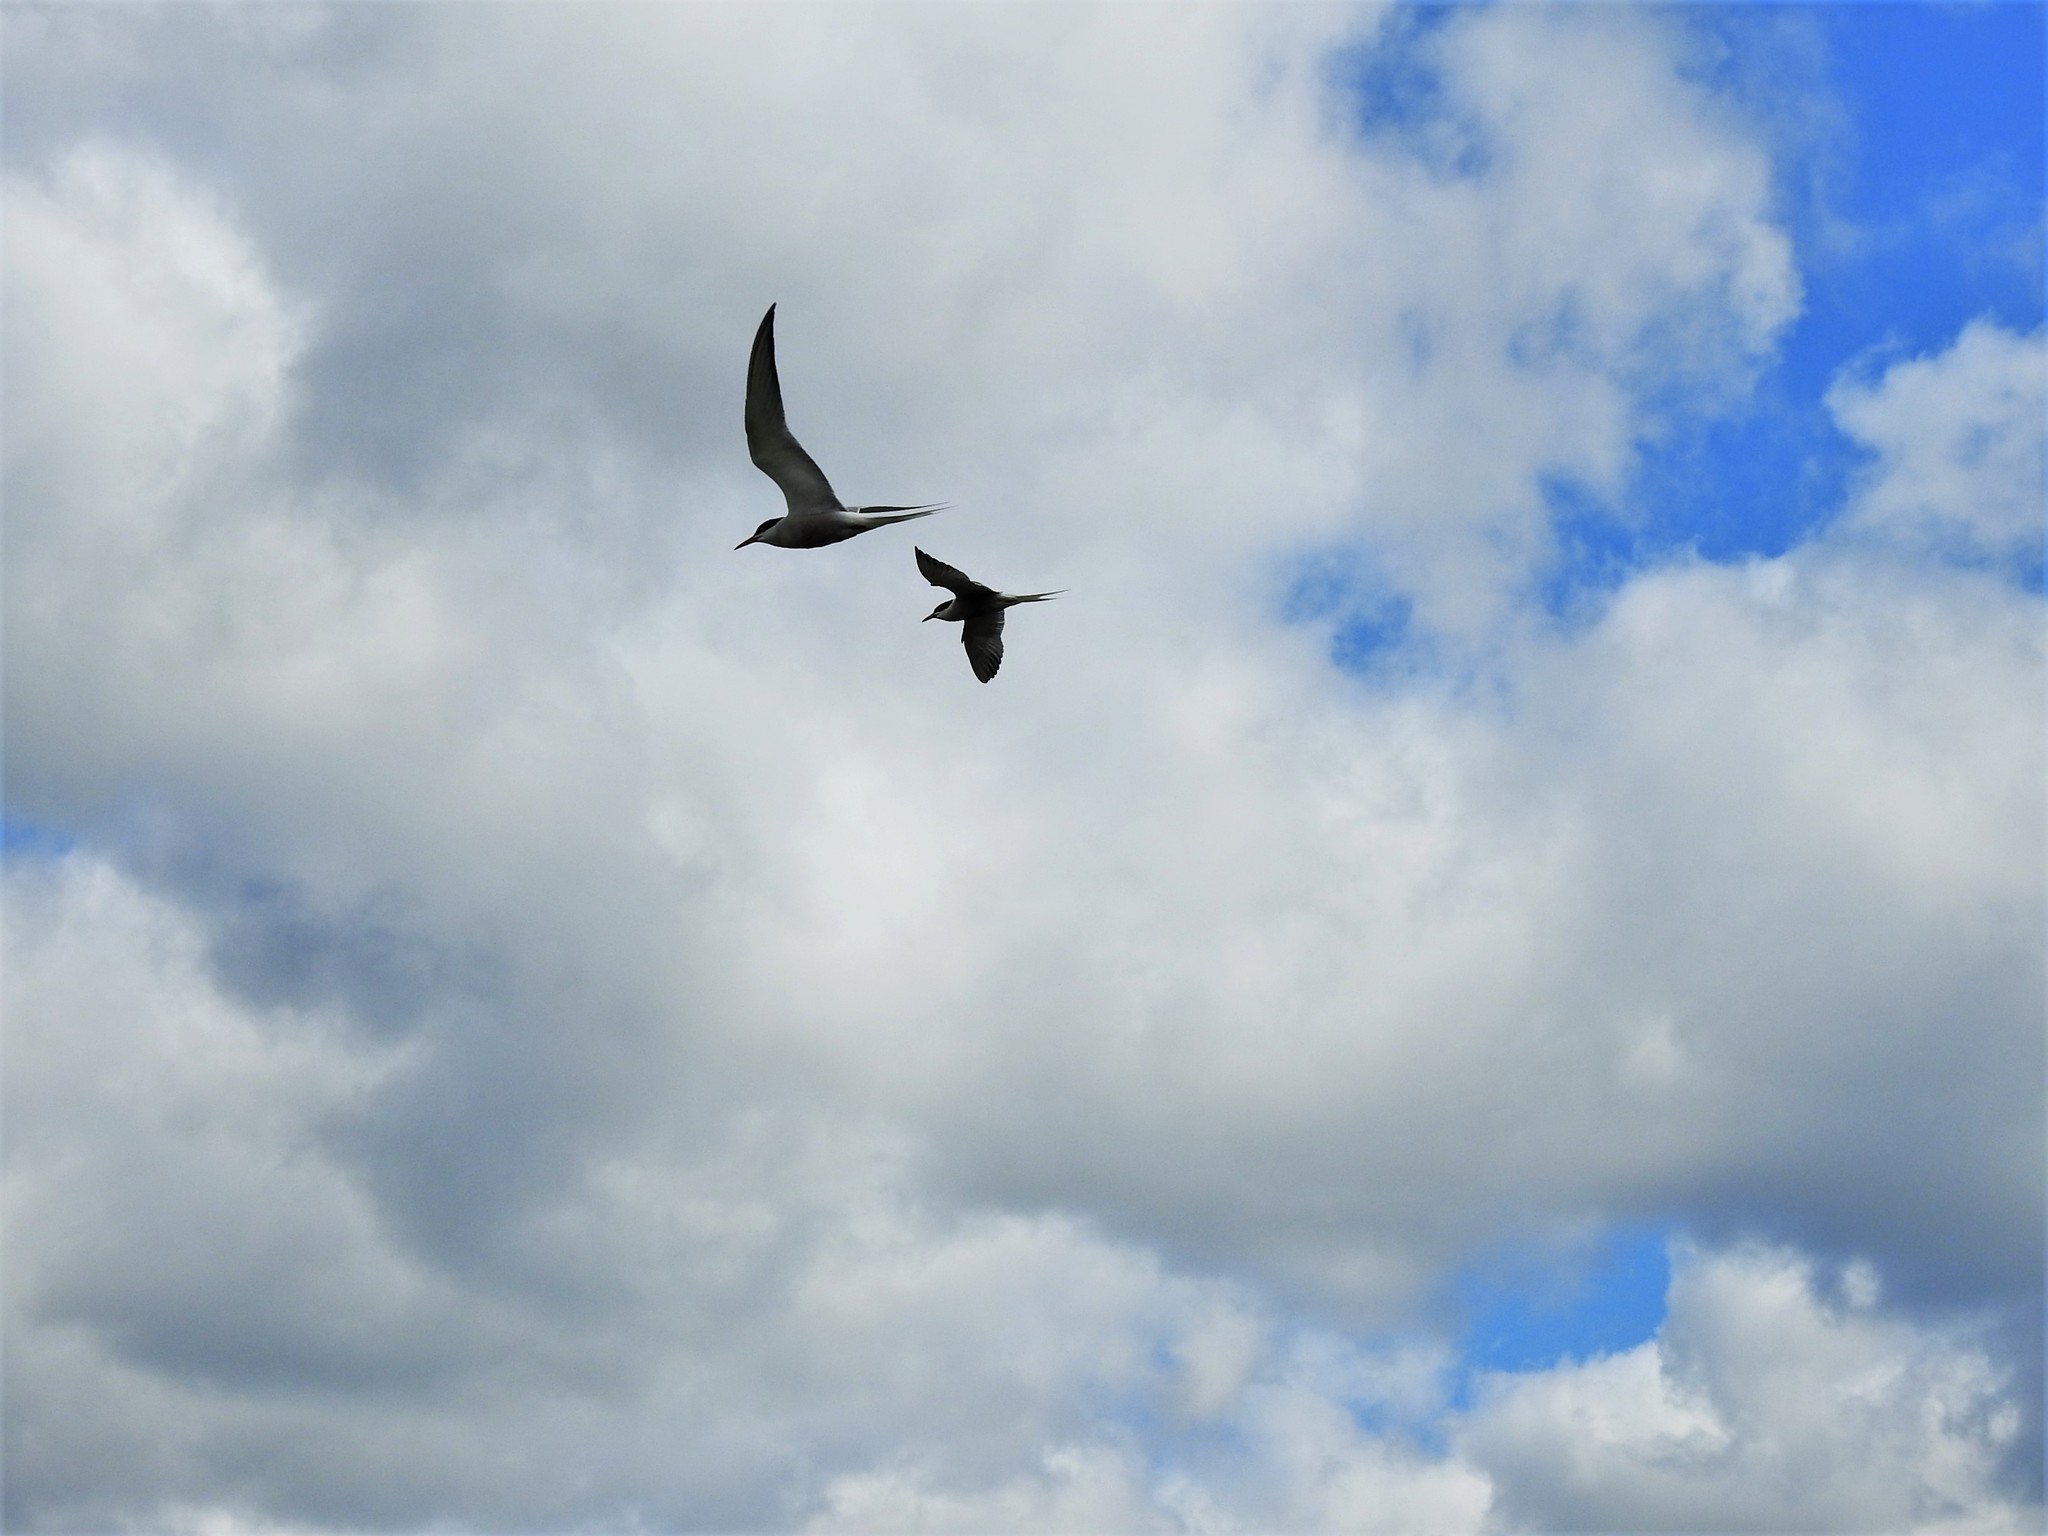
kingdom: Animalia
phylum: Chordata
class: Aves
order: Charadriiformes
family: Laridae
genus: Sterna
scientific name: Sterna hirundo
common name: Common tern
